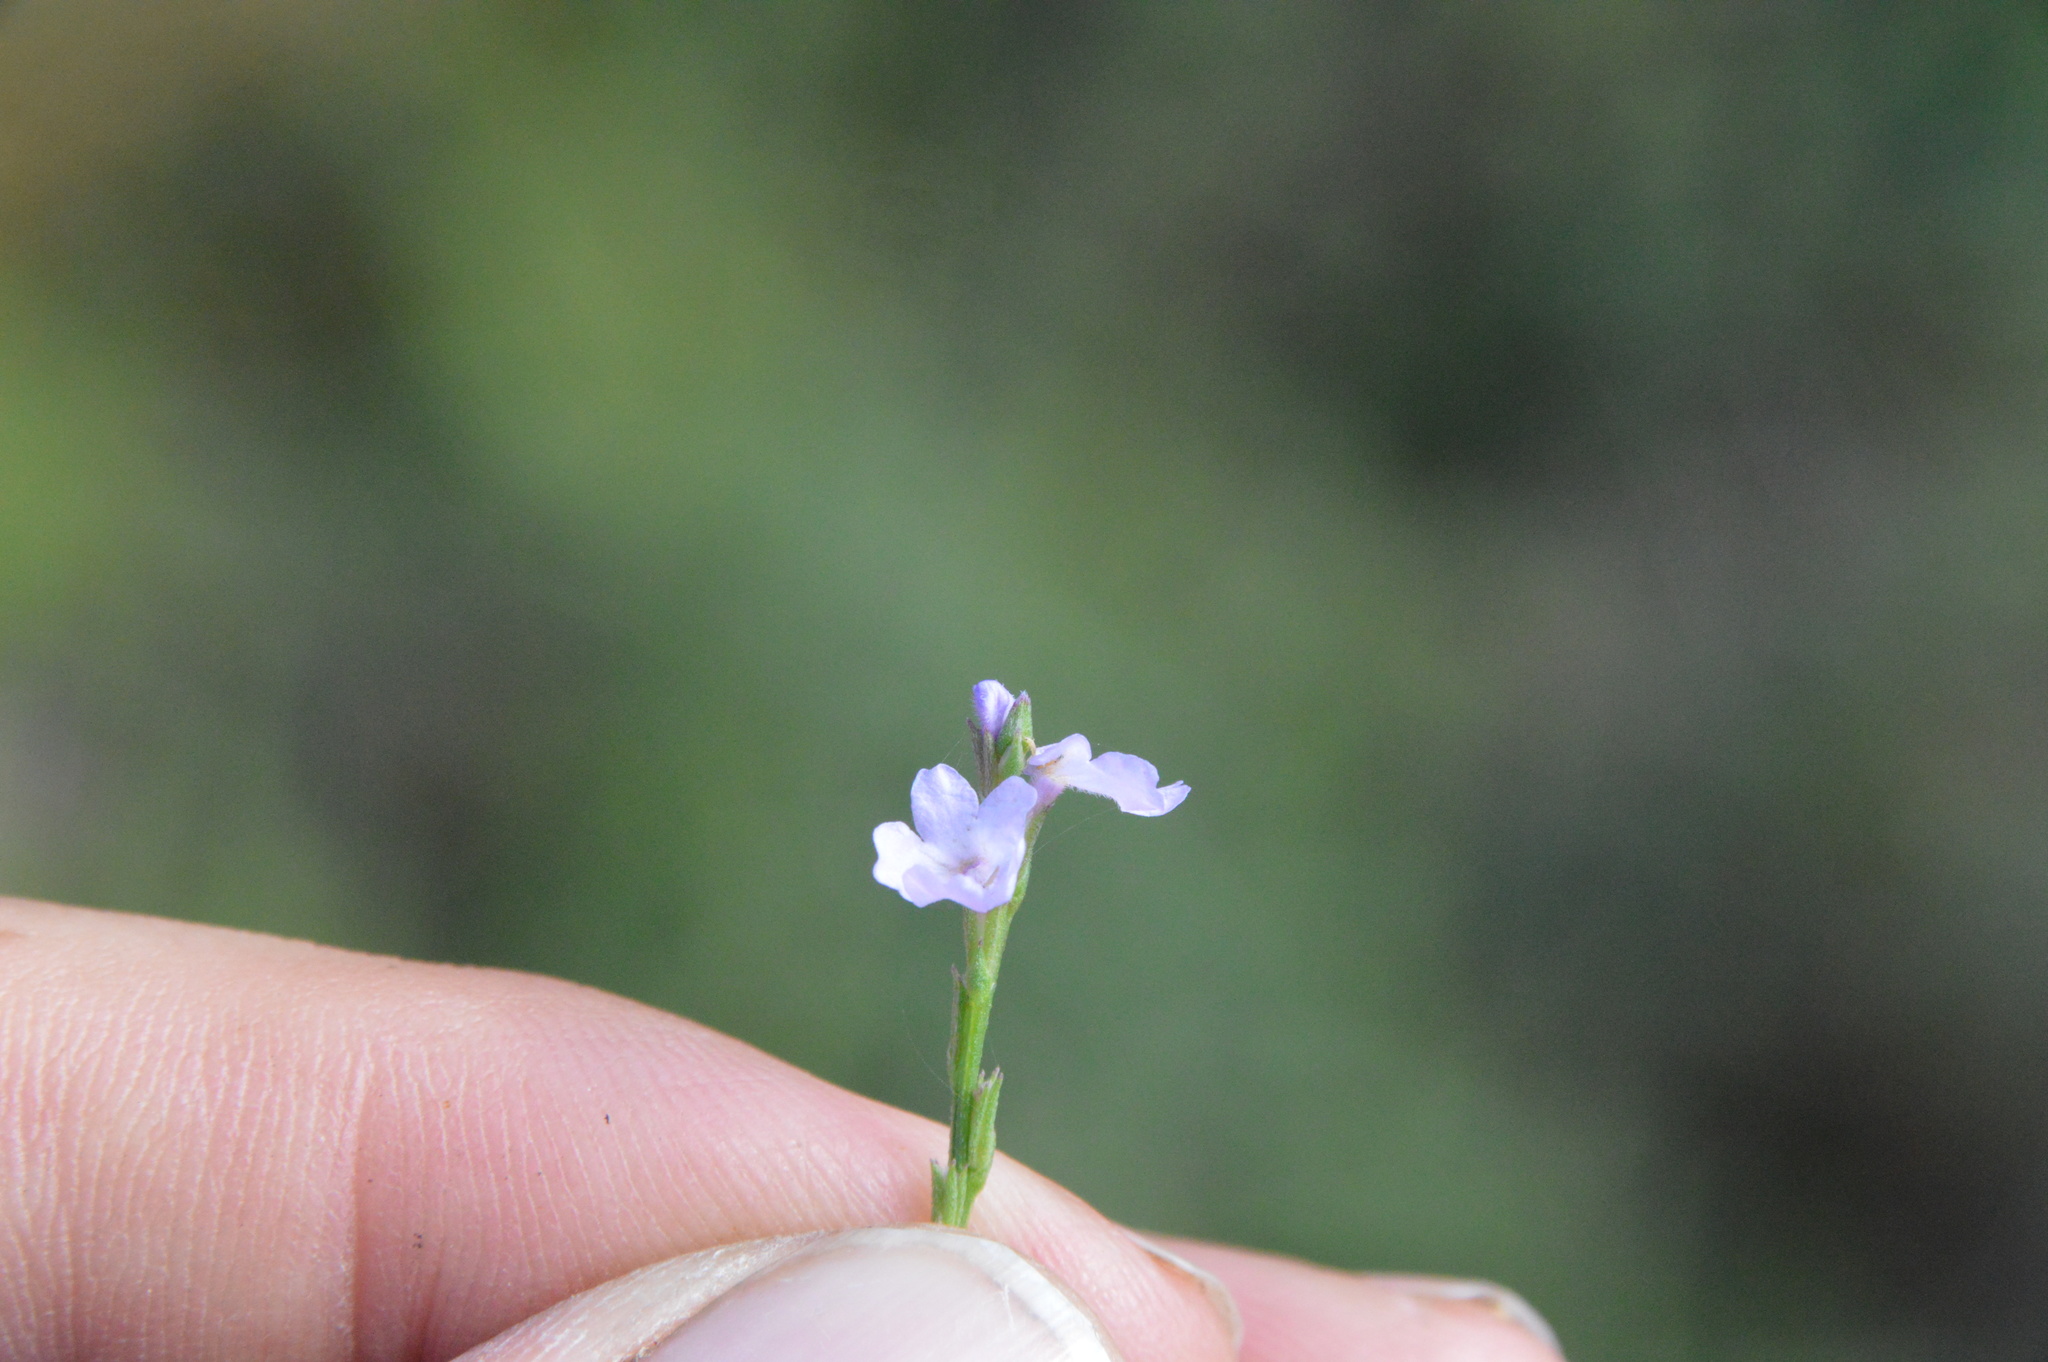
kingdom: Plantae
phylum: Tracheophyta
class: Magnoliopsida
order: Lamiales
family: Verbenaceae
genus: Verbena
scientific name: Verbena halei
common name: Texas vervain
